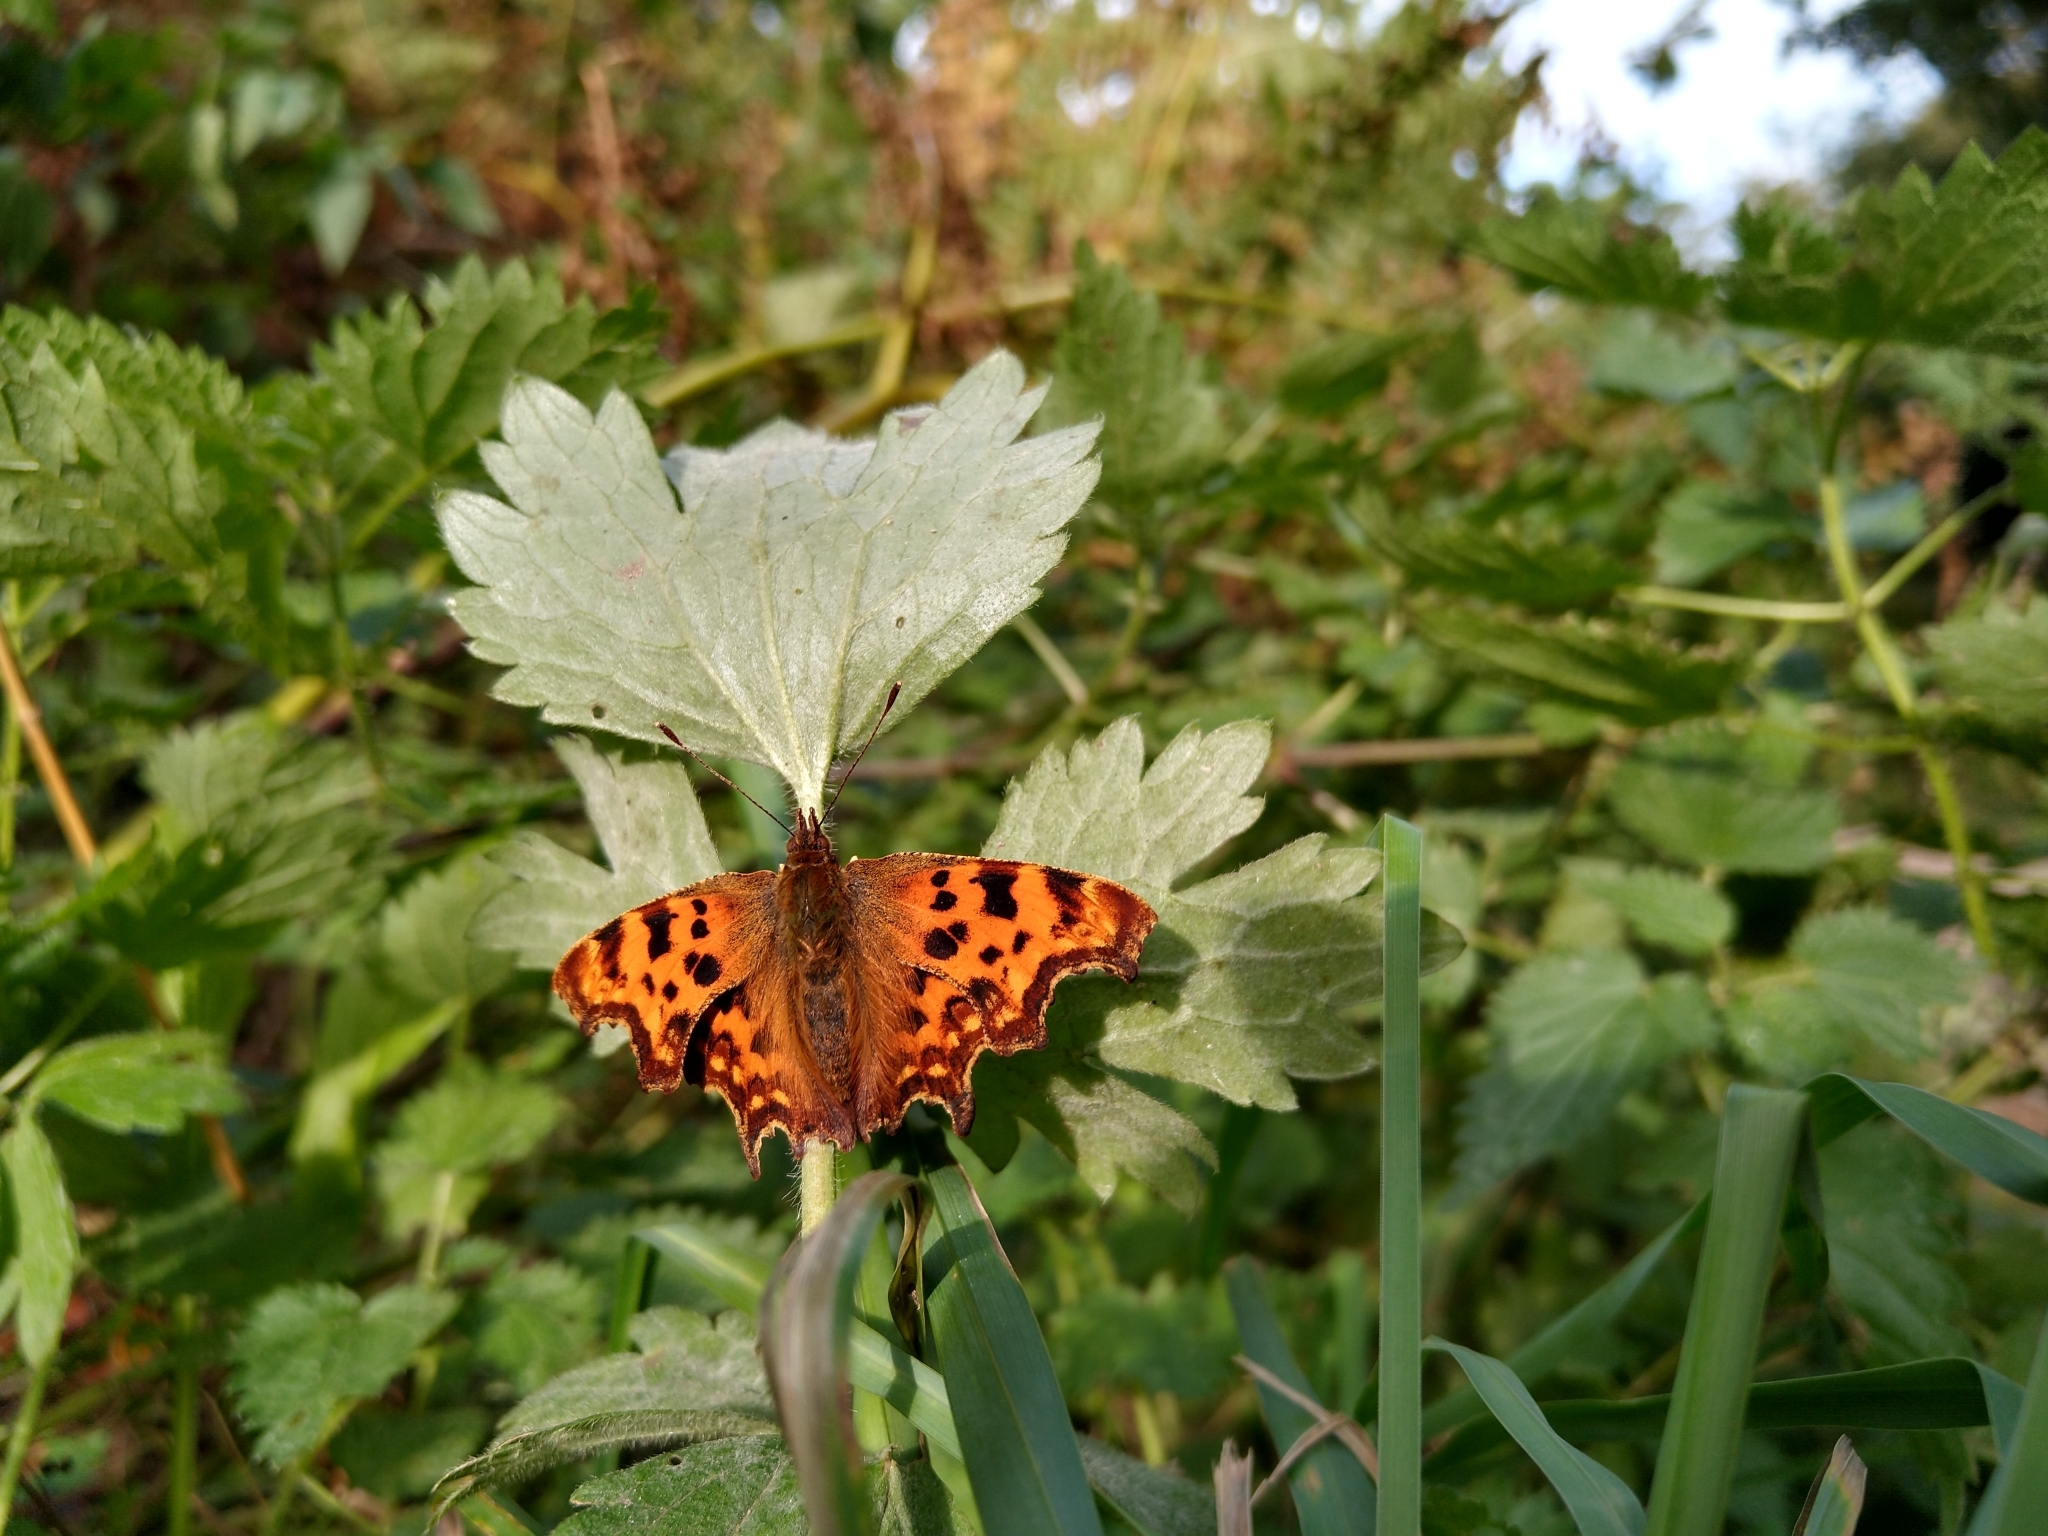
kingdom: Animalia
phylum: Arthropoda
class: Insecta
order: Lepidoptera
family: Nymphalidae
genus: Polygonia
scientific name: Polygonia c-album
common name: Comma
